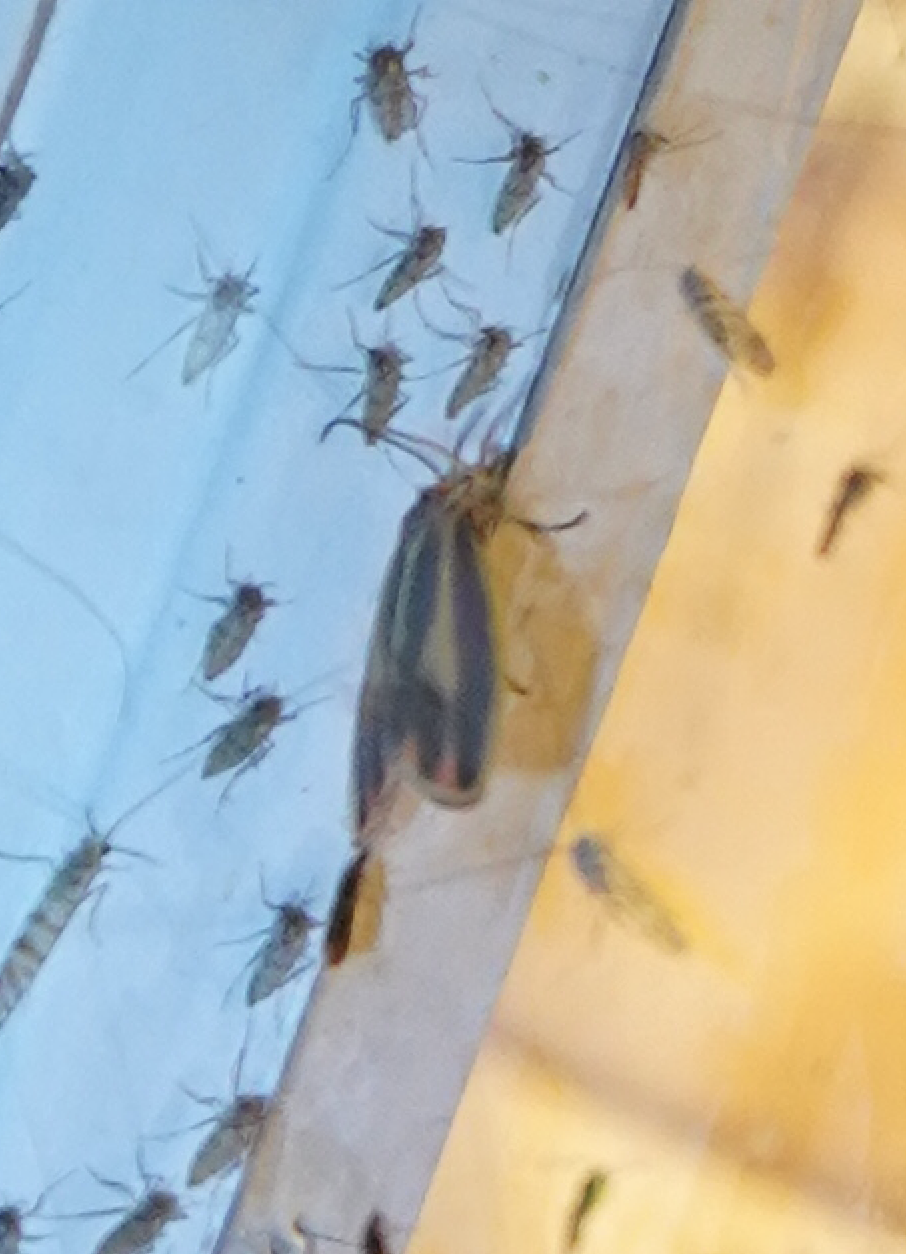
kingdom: Animalia
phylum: Arthropoda
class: Insecta
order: Lepidoptera
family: Erebidae
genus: Hypoprepia
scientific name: Hypoprepia fucosa
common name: Painted lichen moth
